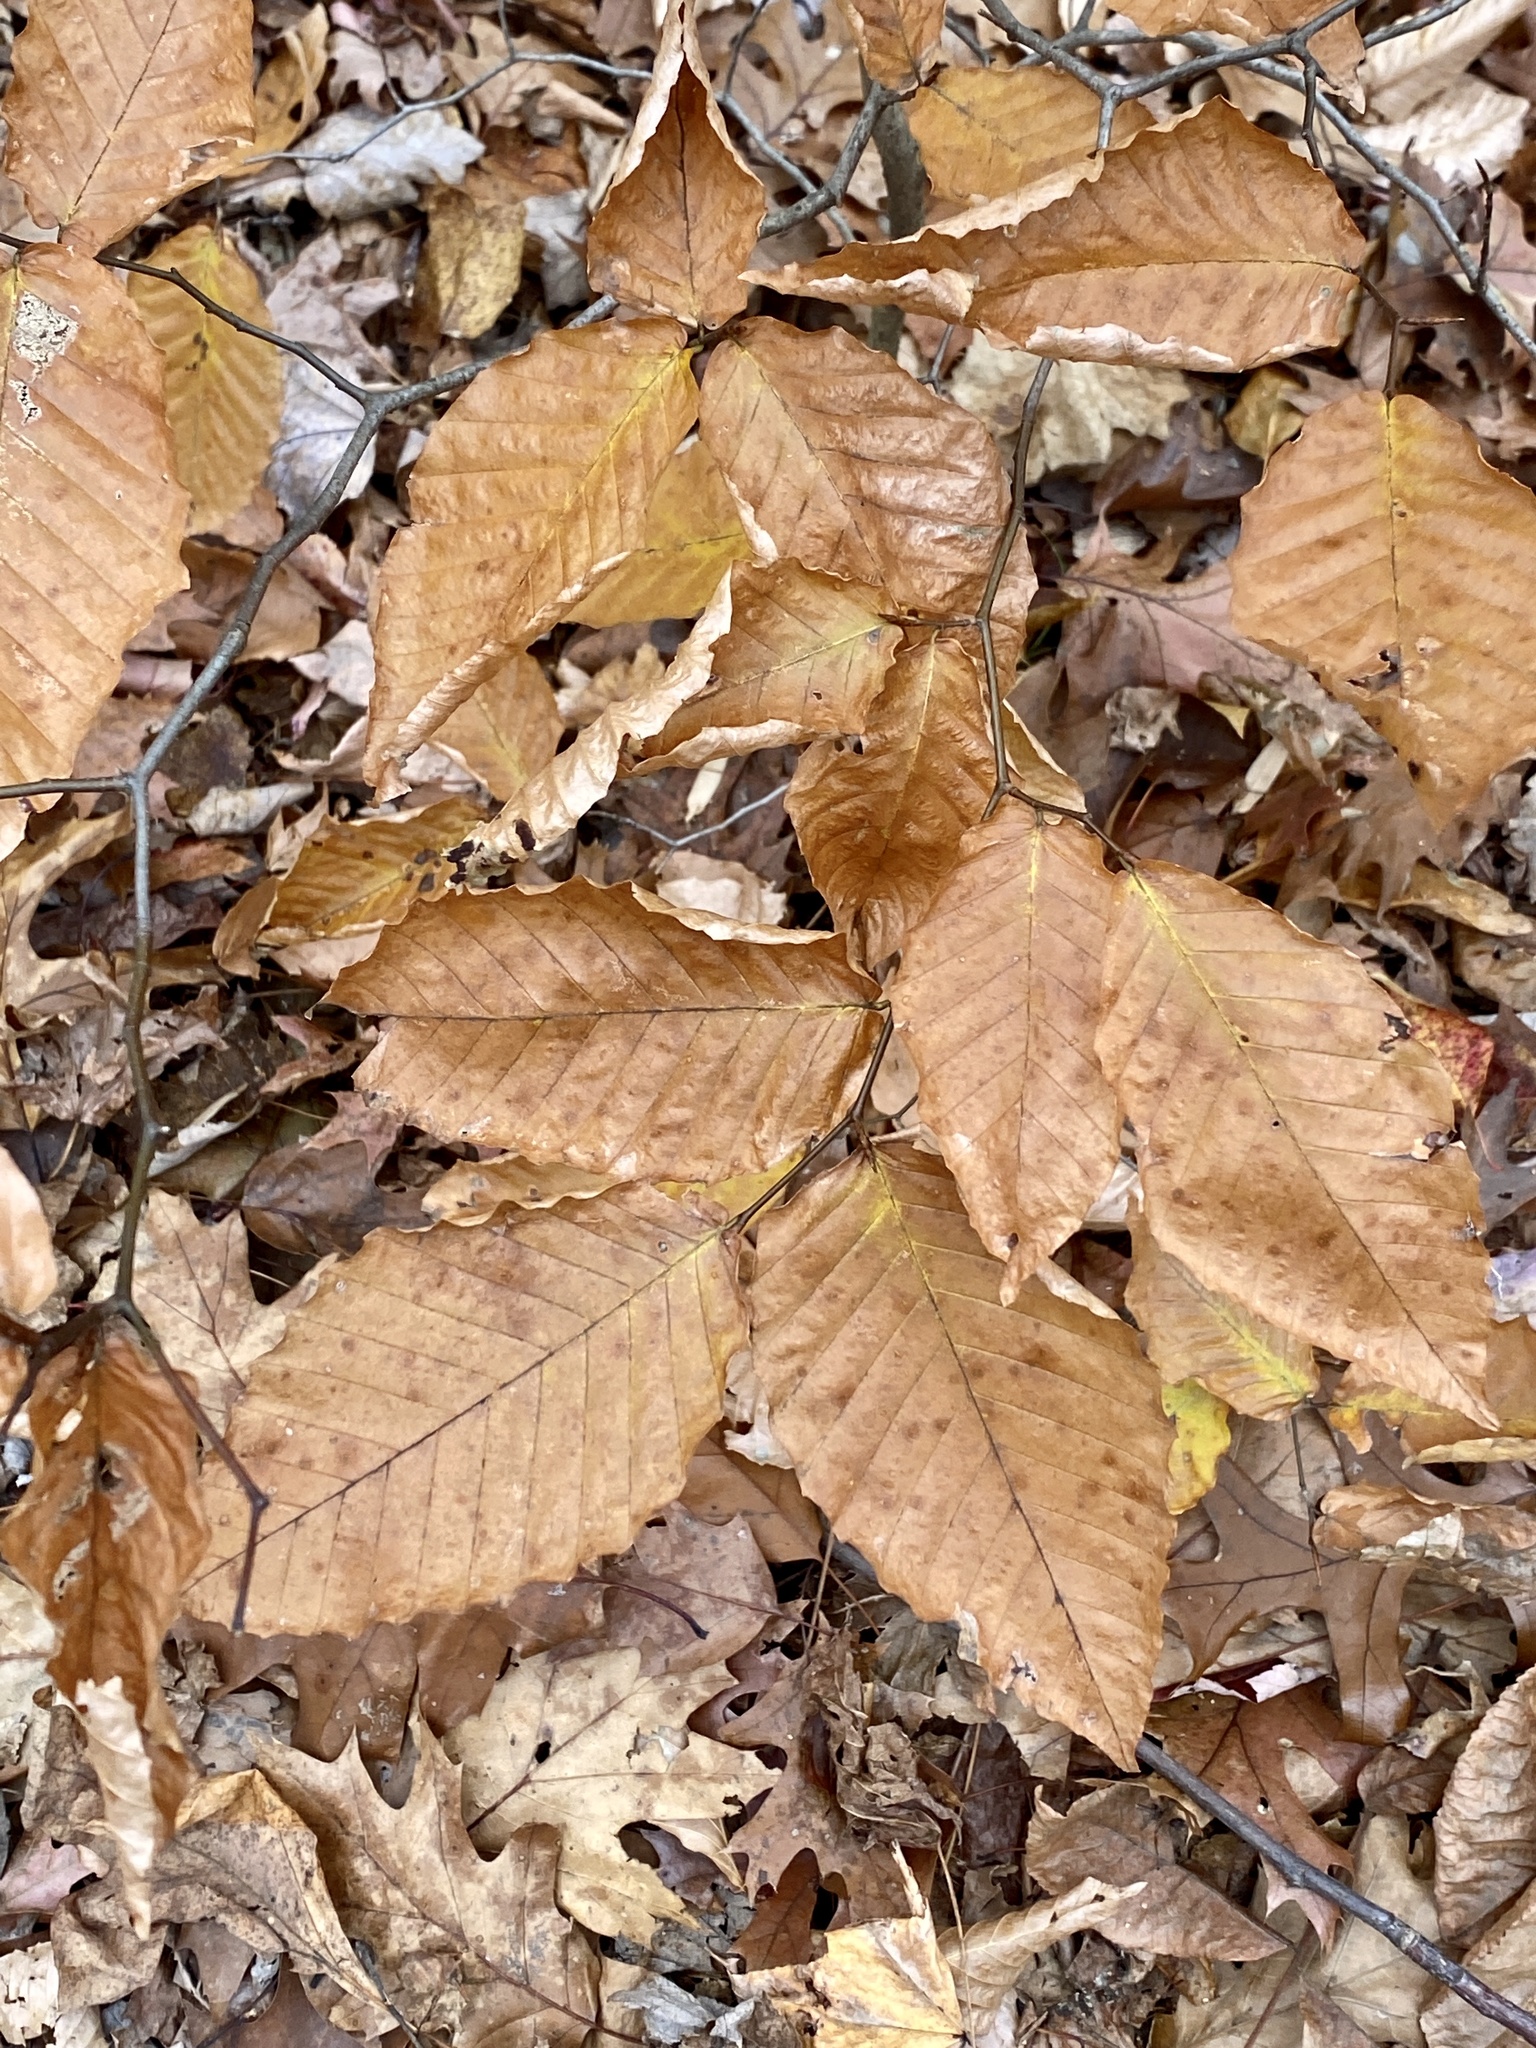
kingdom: Plantae
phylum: Tracheophyta
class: Magnoliopsida
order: Fagales
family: Fagaceae
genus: Fagus
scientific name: Fagus grandifolia
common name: American beech
